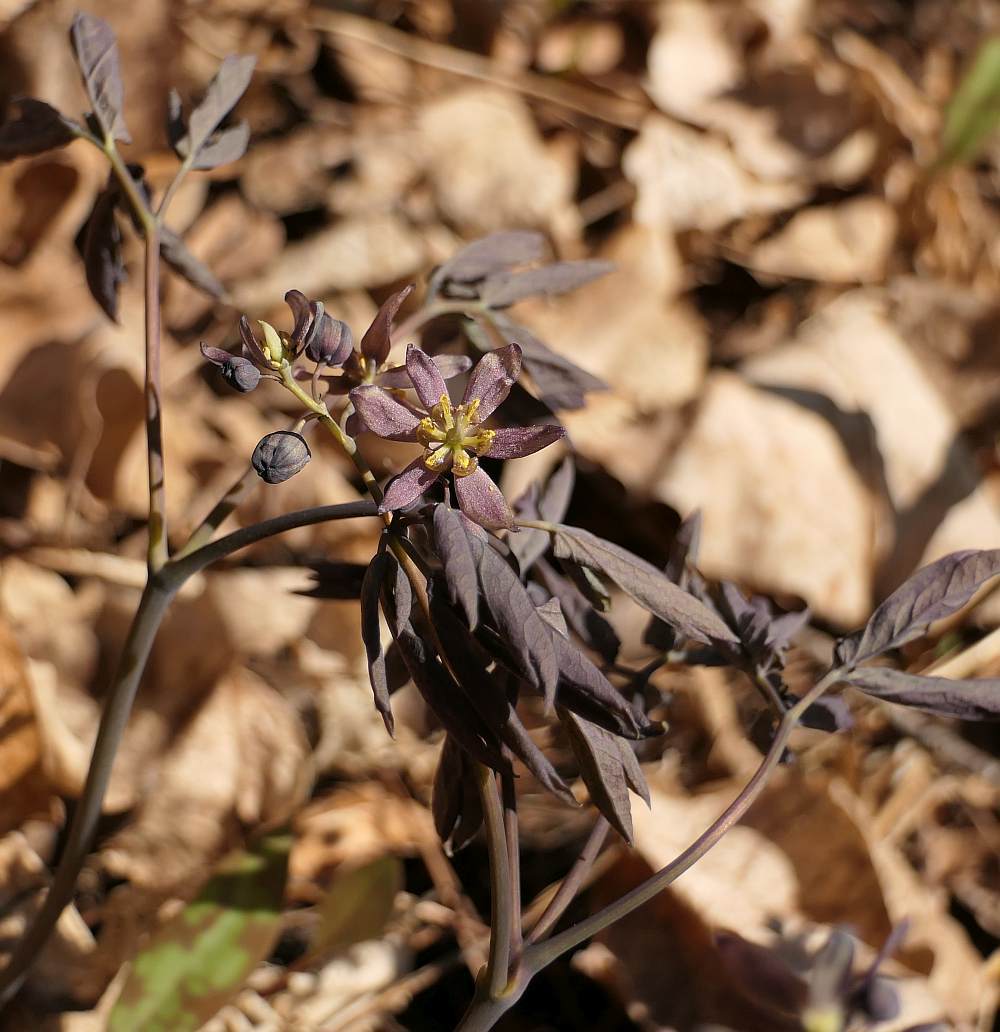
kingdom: Plantae
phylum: Tracheophyta
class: Magnoliopsida
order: Ranunculales
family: Berberidaceae
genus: Caulophyllum
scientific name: Caulophyllum giganteum
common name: Blue cohosh
